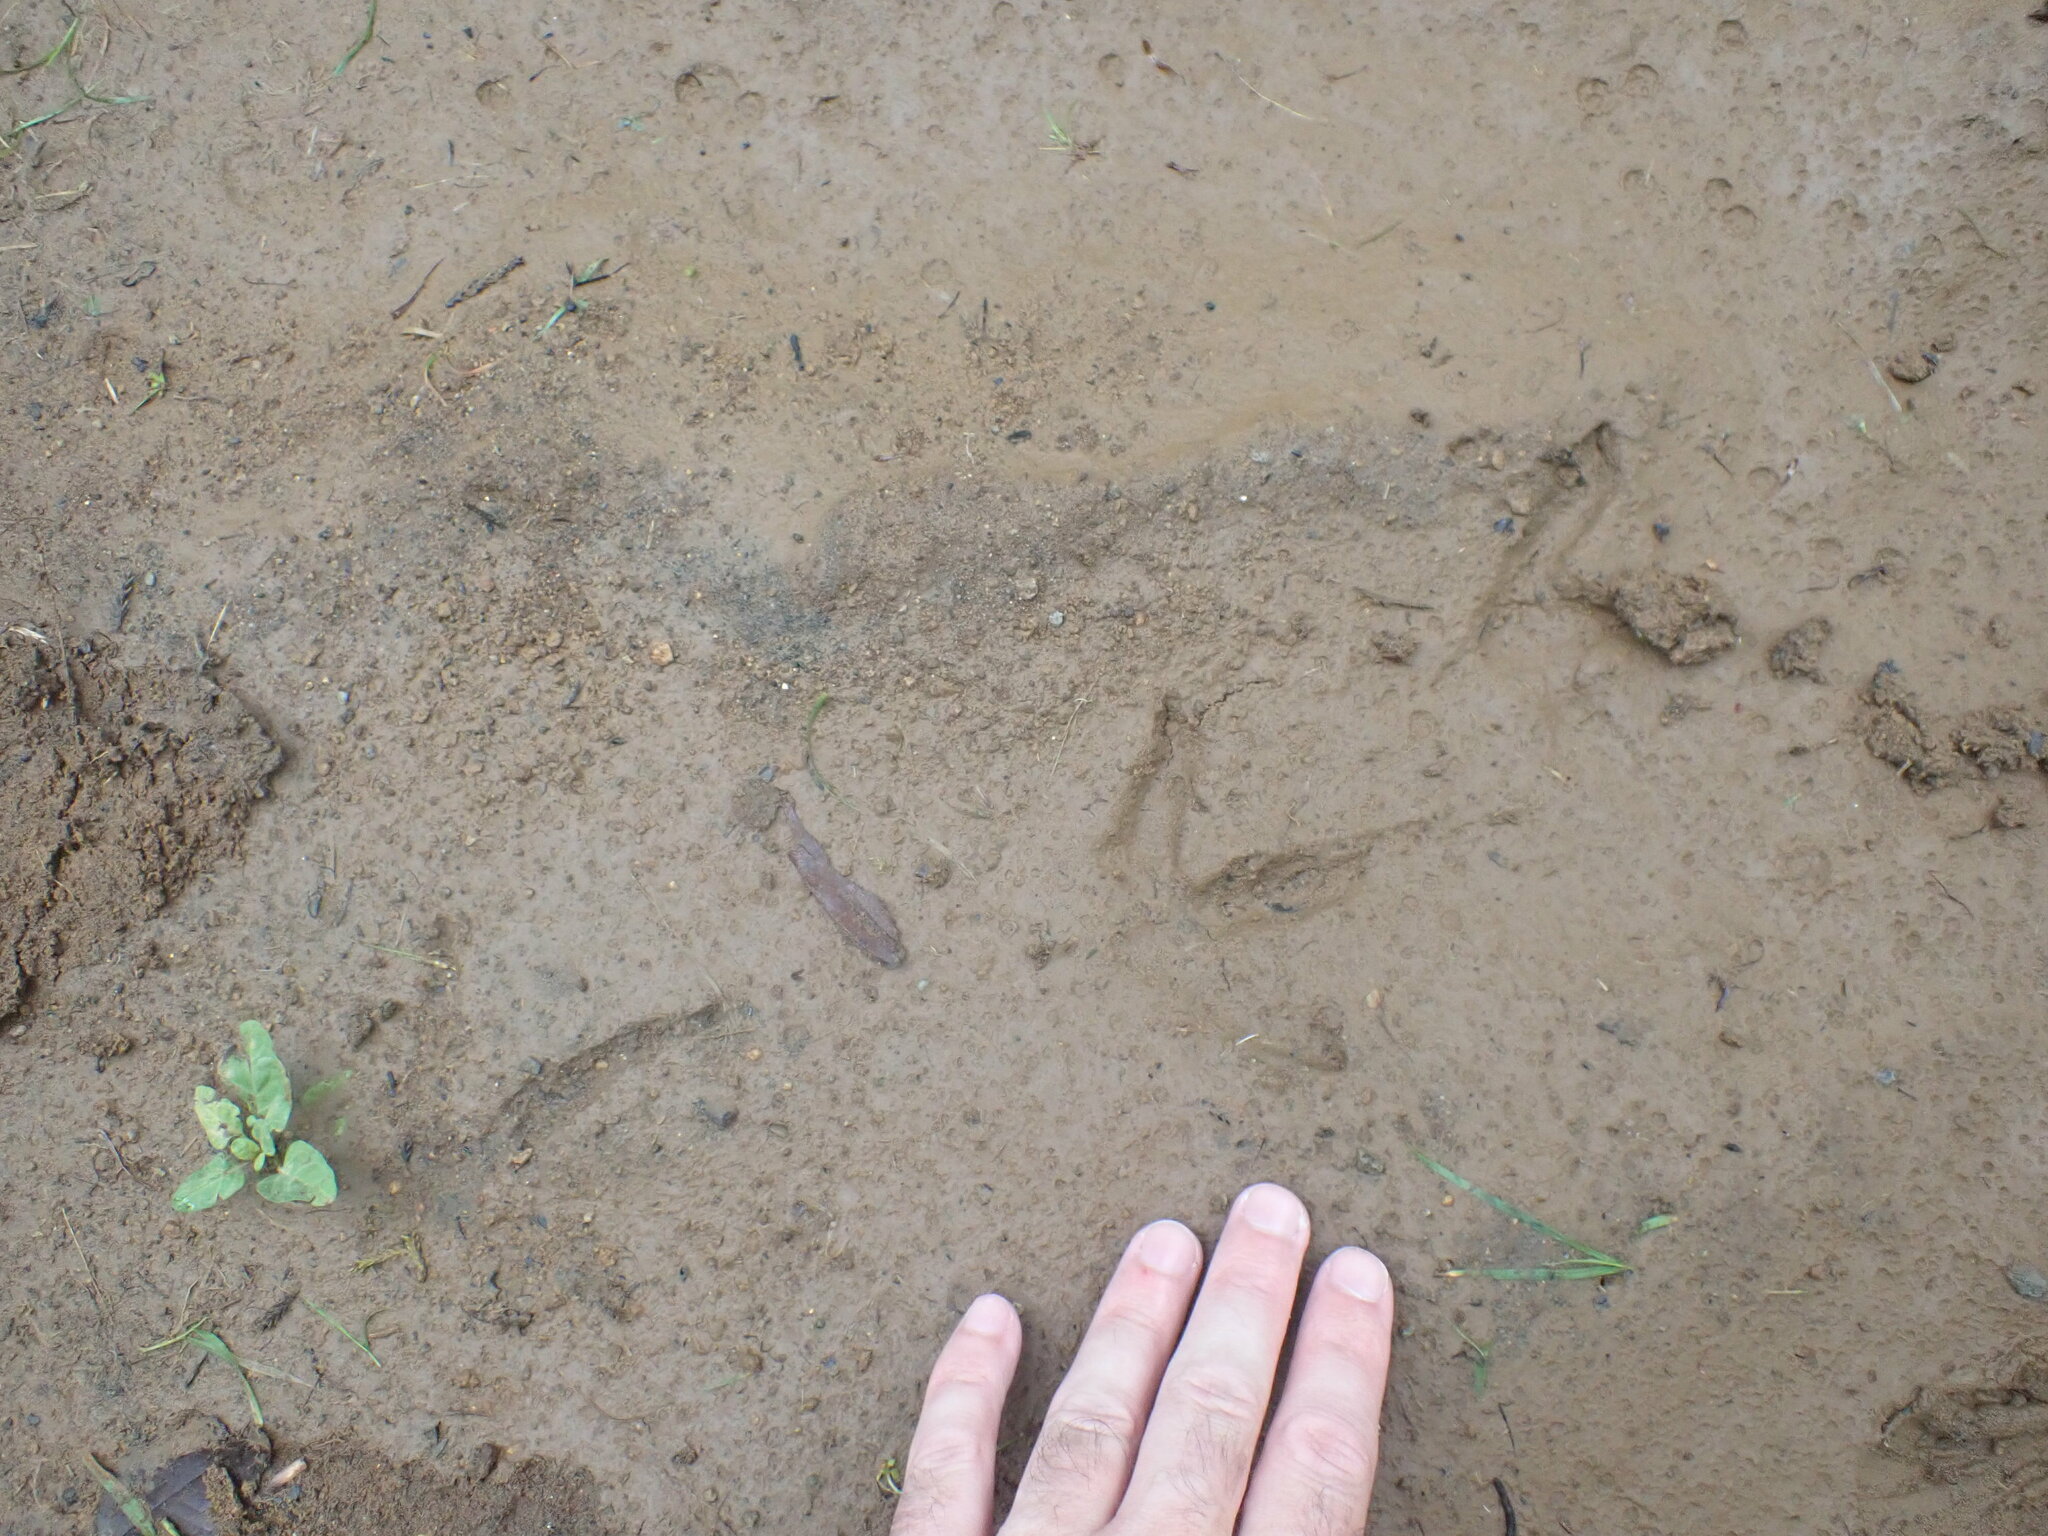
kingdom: Animalia
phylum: Chordata
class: Aves
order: Apterygiformes
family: Apterygidae
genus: Apteryx
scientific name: Apteryx mantelli
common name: North island brown kiwi
